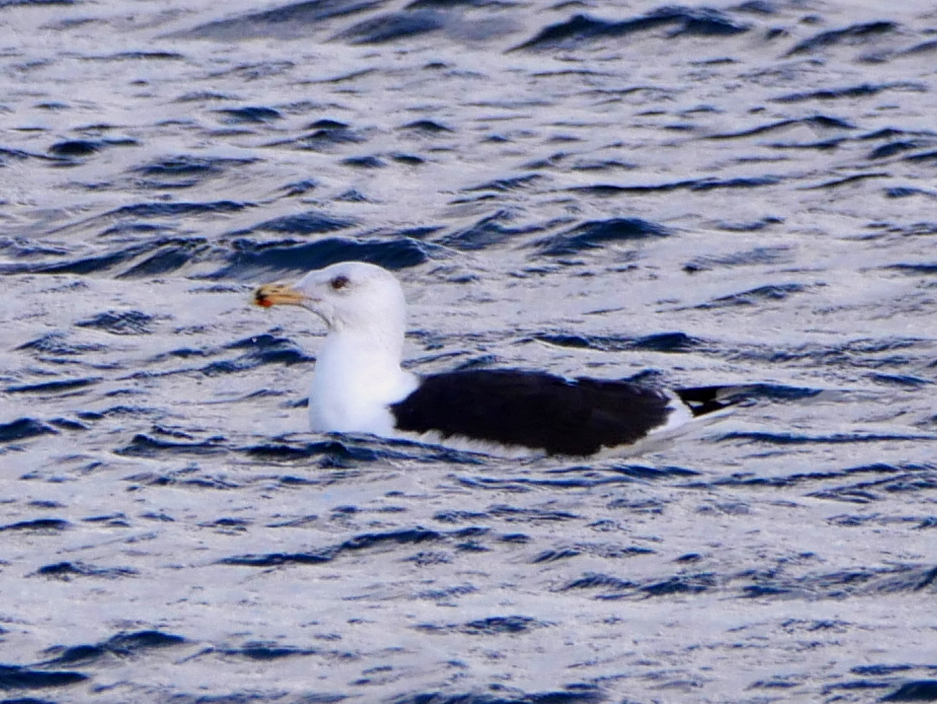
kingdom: Animalia
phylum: Chordata
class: Aves
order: Charadriiformes
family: Laridae
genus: Larus
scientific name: Larus marinus
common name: Great black-backed gull
